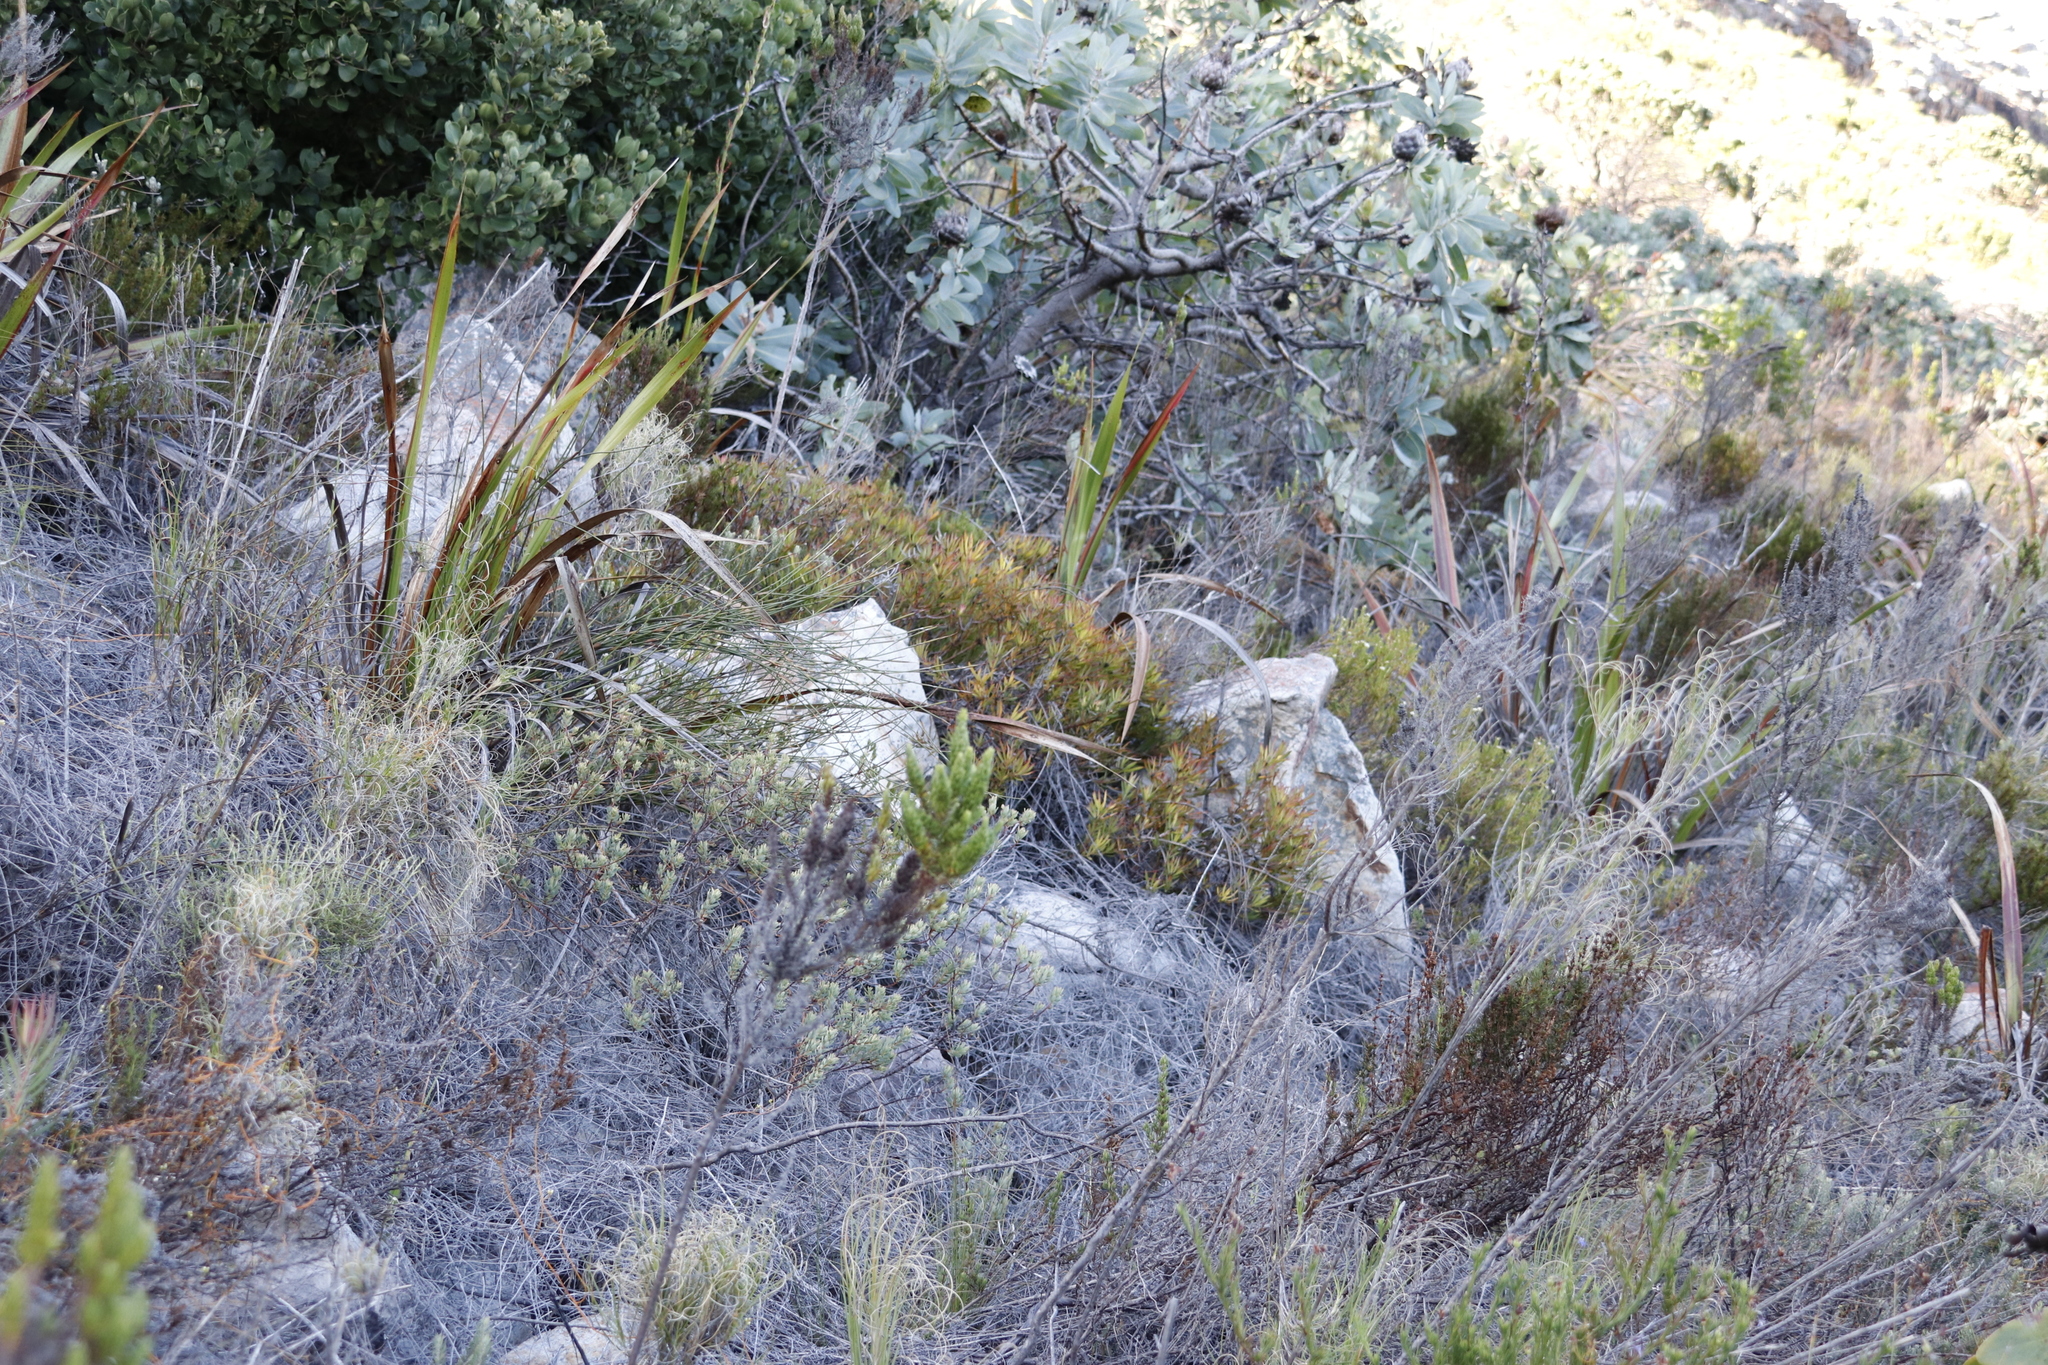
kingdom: Plantae
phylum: Tracheophyta
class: Magnoliopsida
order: Proteales
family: Proteaceae
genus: Leucadendron
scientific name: Leucadendron salignum
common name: Common sunshine conebush
